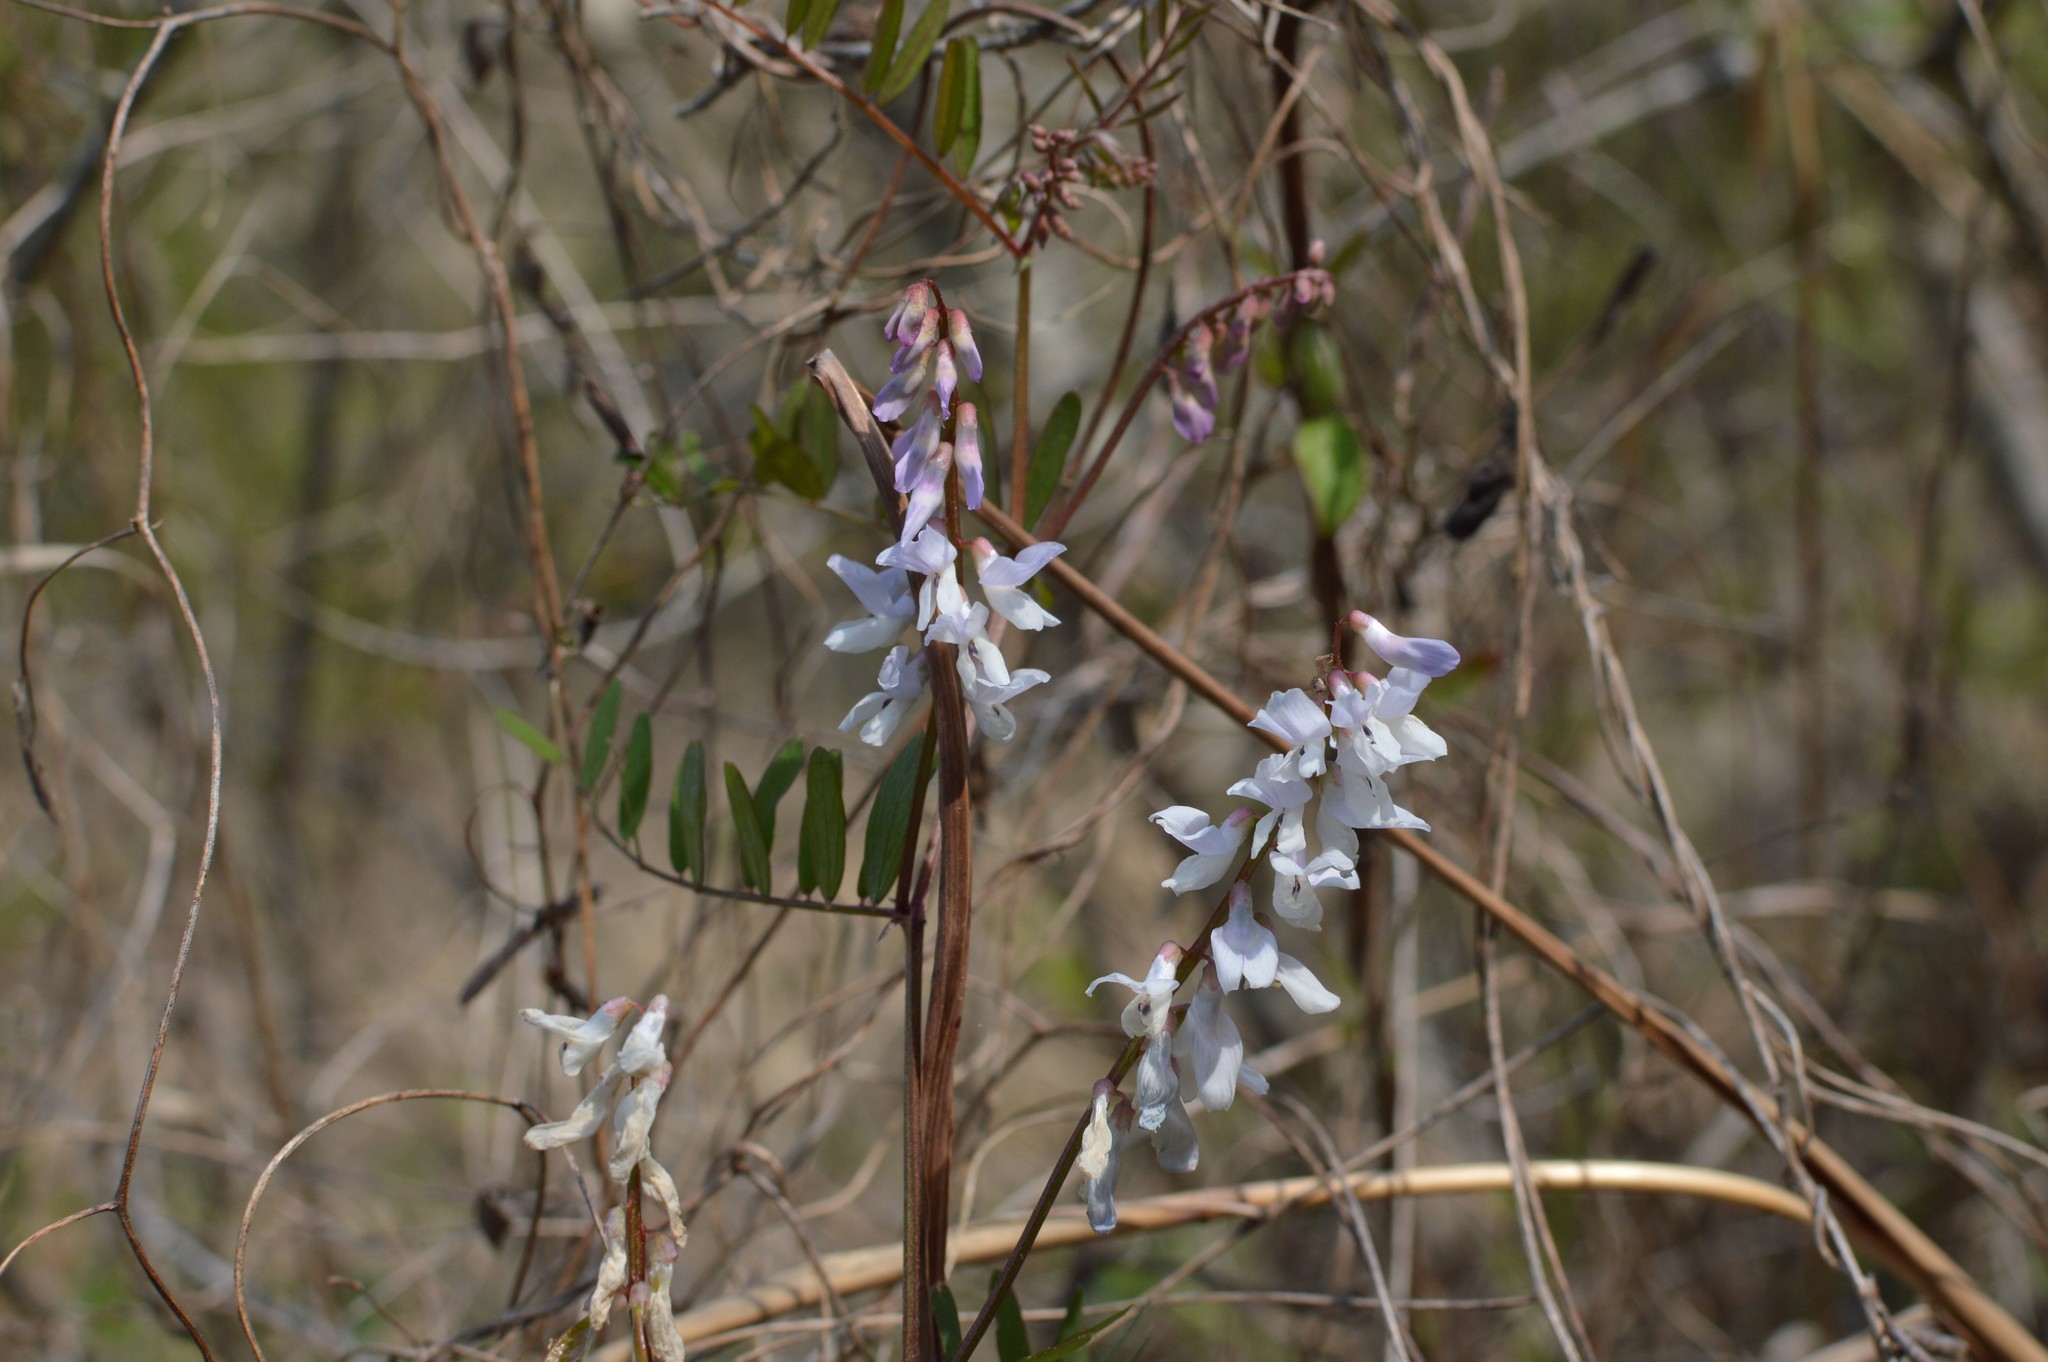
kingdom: Plantae
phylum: Tracheophyta
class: Magnoliopsida
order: Fabales
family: Fabaceae
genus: Vicia
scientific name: Vicia caroliniana
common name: Carolina vetch
